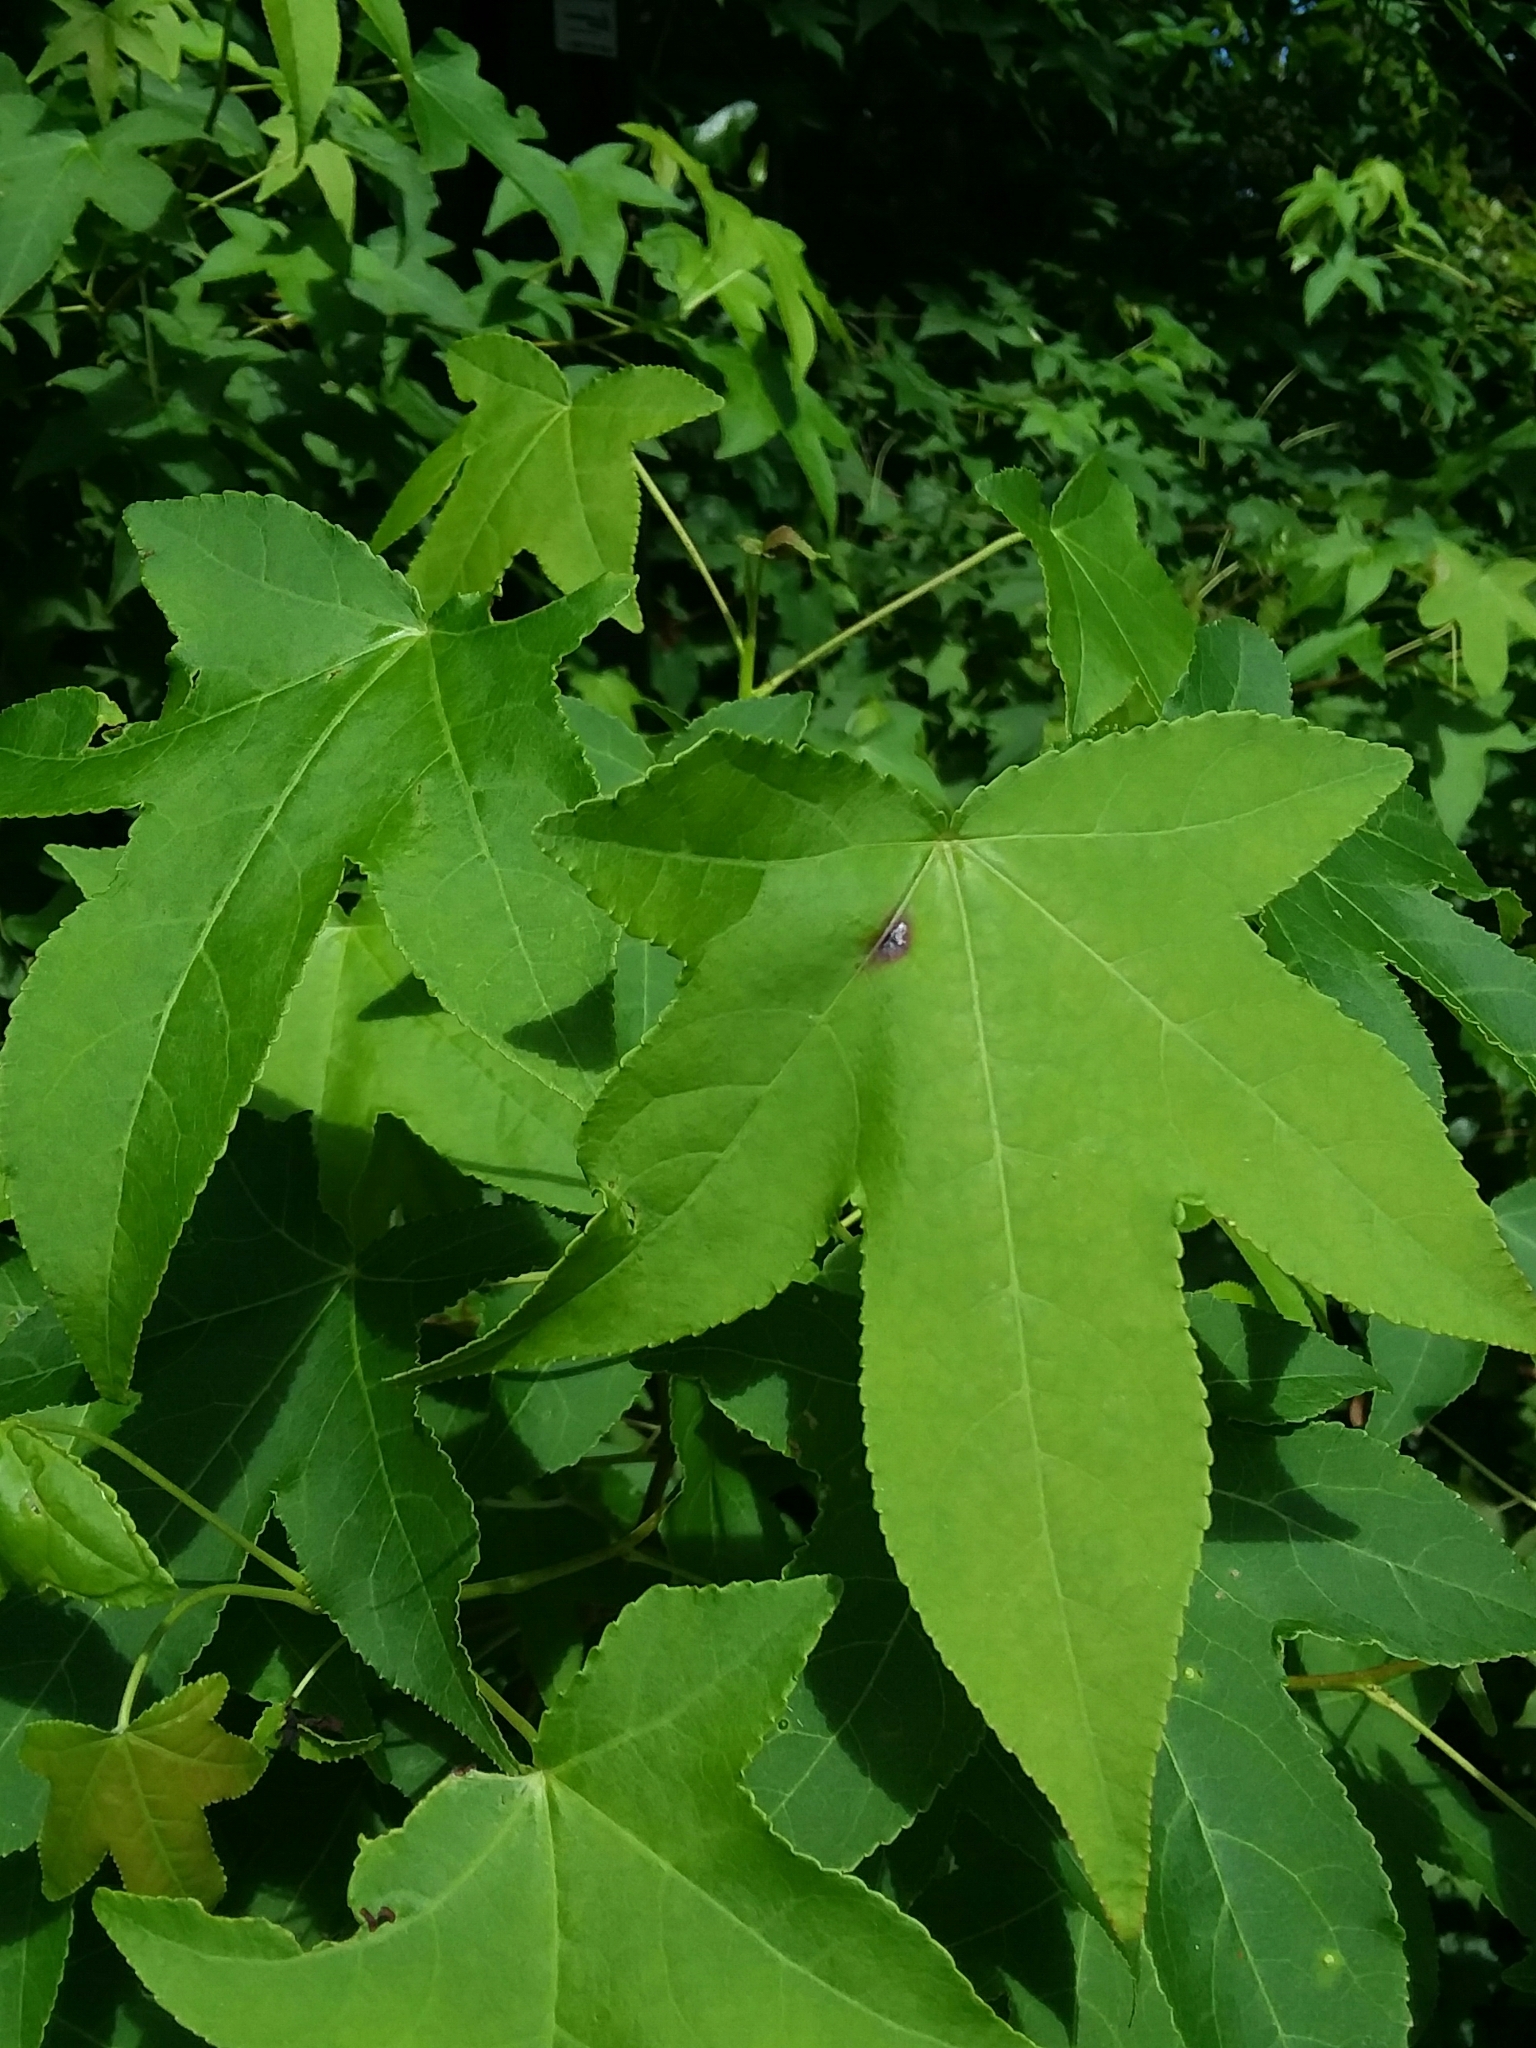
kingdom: Plantae
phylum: Tracheophyta
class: Magnoliopsida
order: Saxifragales
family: Altingiaceae
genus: Liquidambar
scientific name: Liquidambar styraciflua
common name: Sweet gum
